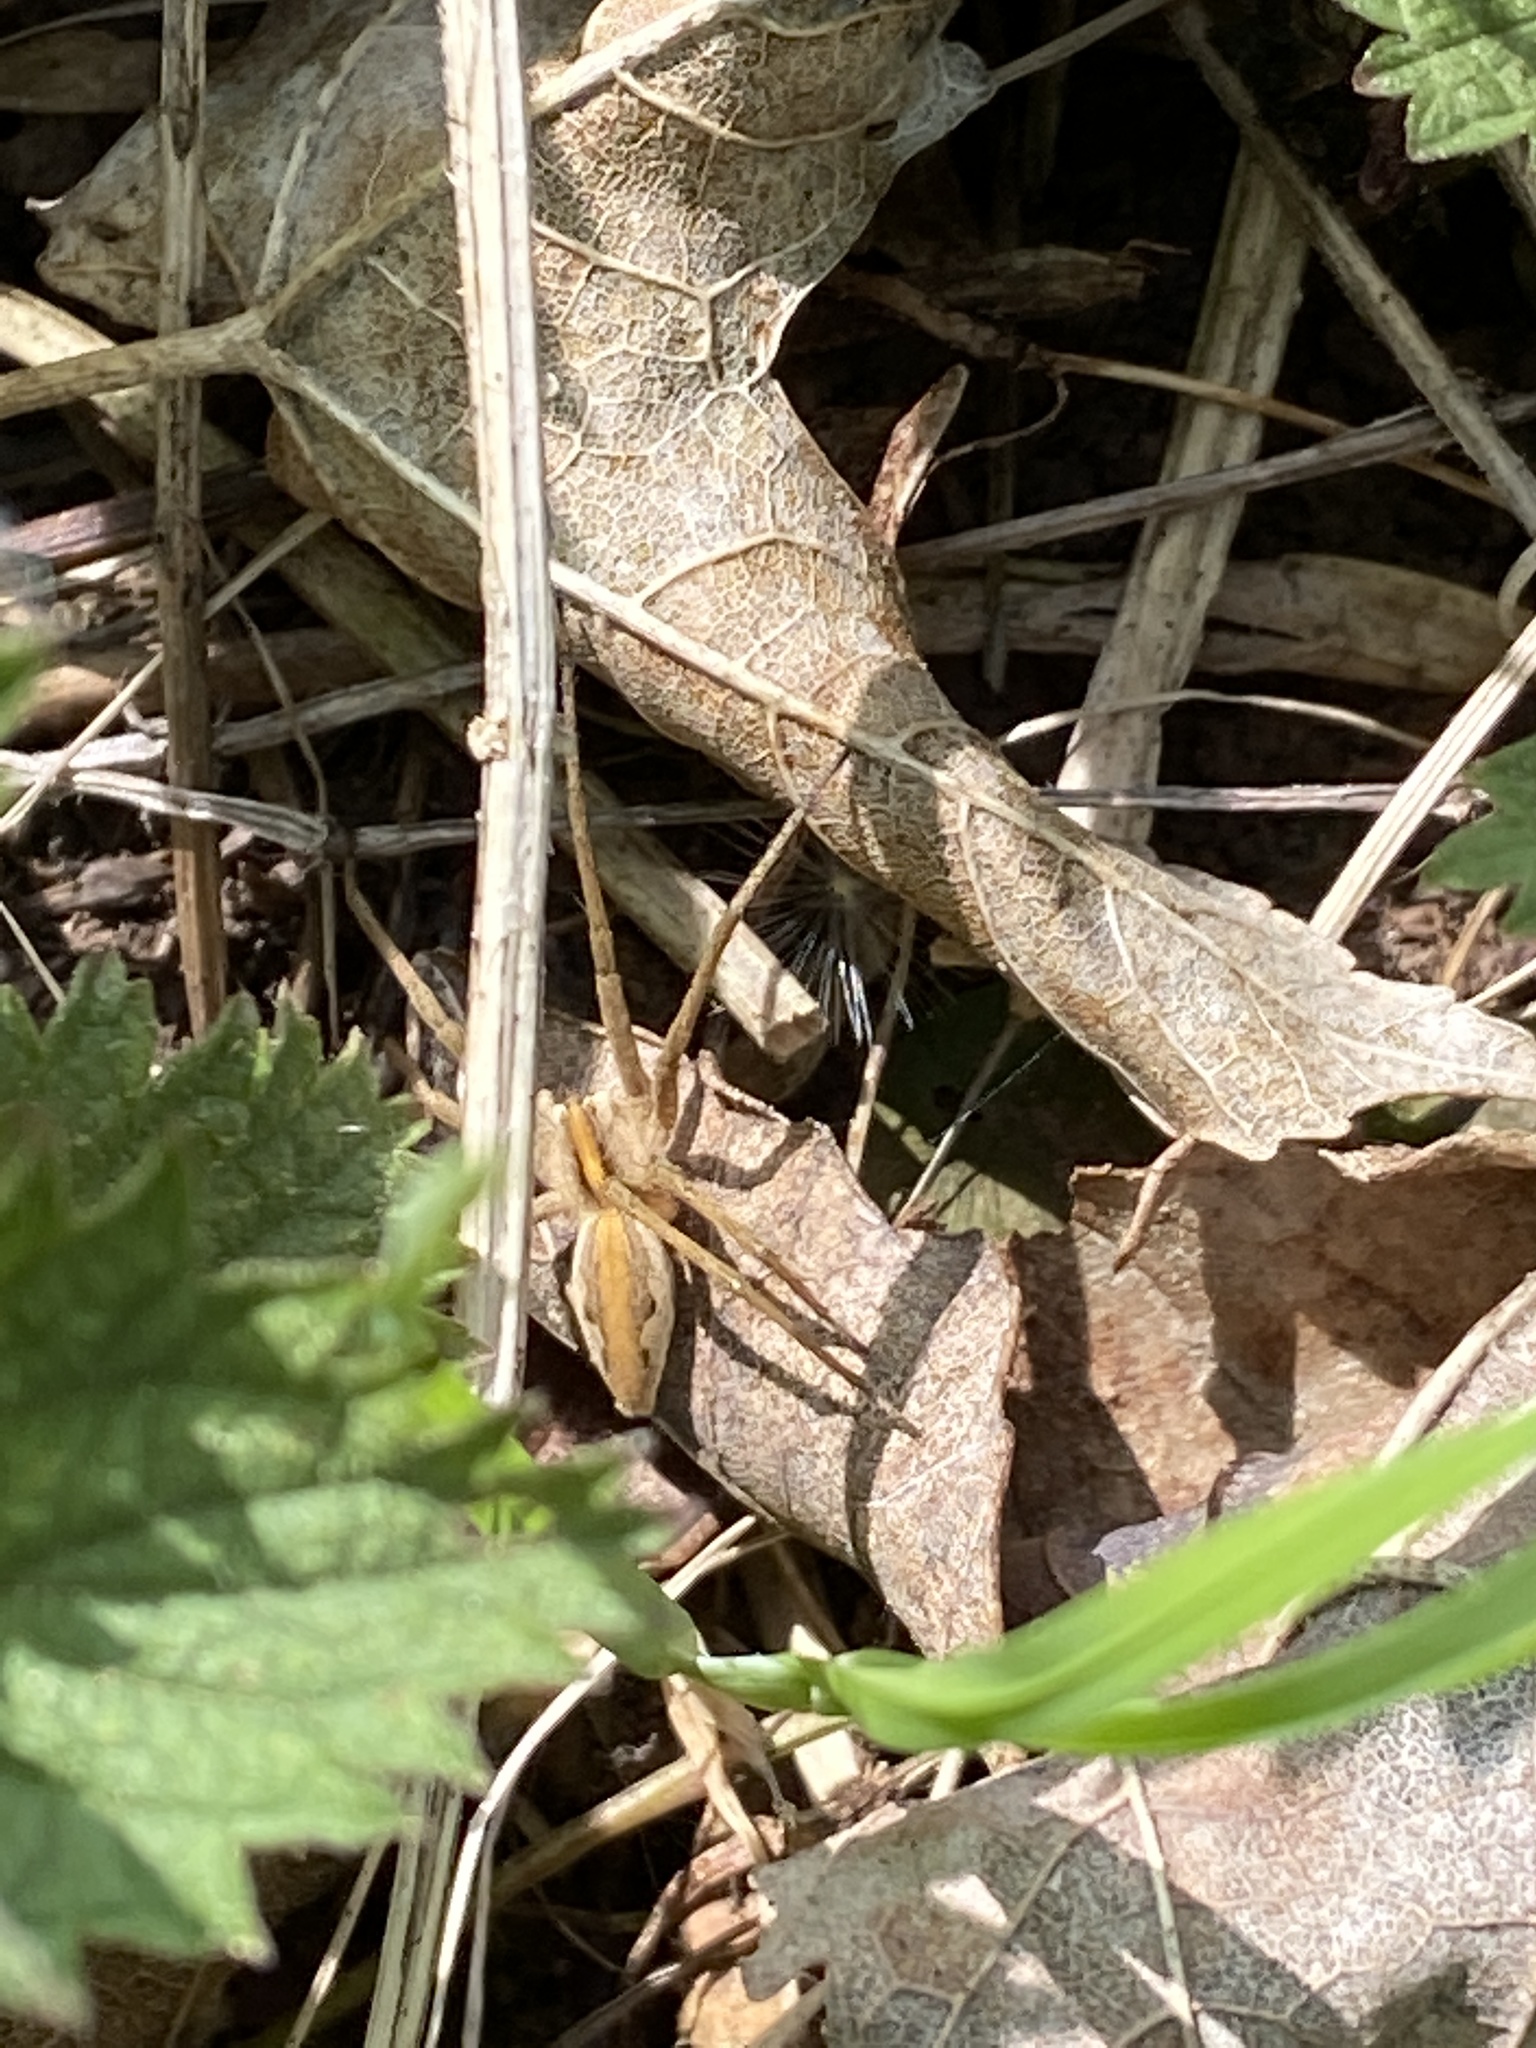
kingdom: Animalia
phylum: Arthropoda
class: Arachnida
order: Araneae
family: Pisauridae
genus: Pisaura
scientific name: Pisaura mirabilis
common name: Tent spider
